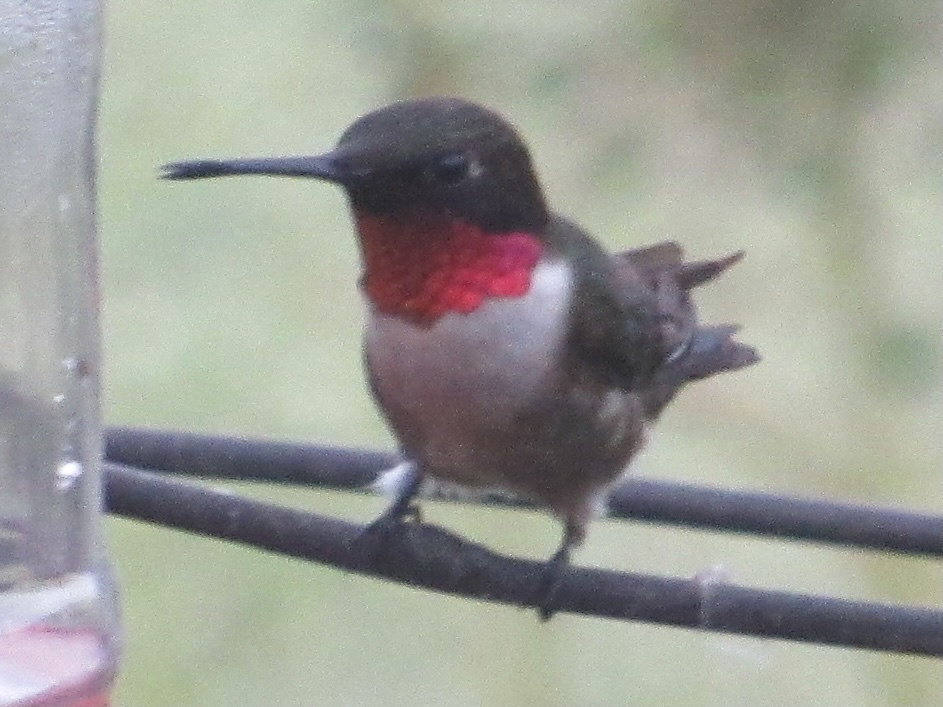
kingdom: Animalia
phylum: Chordata
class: Aves
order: Apodiformes
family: Trochilidae
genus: Archilochus
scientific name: Archilochus colubris
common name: Ruby-throated hummingbird
